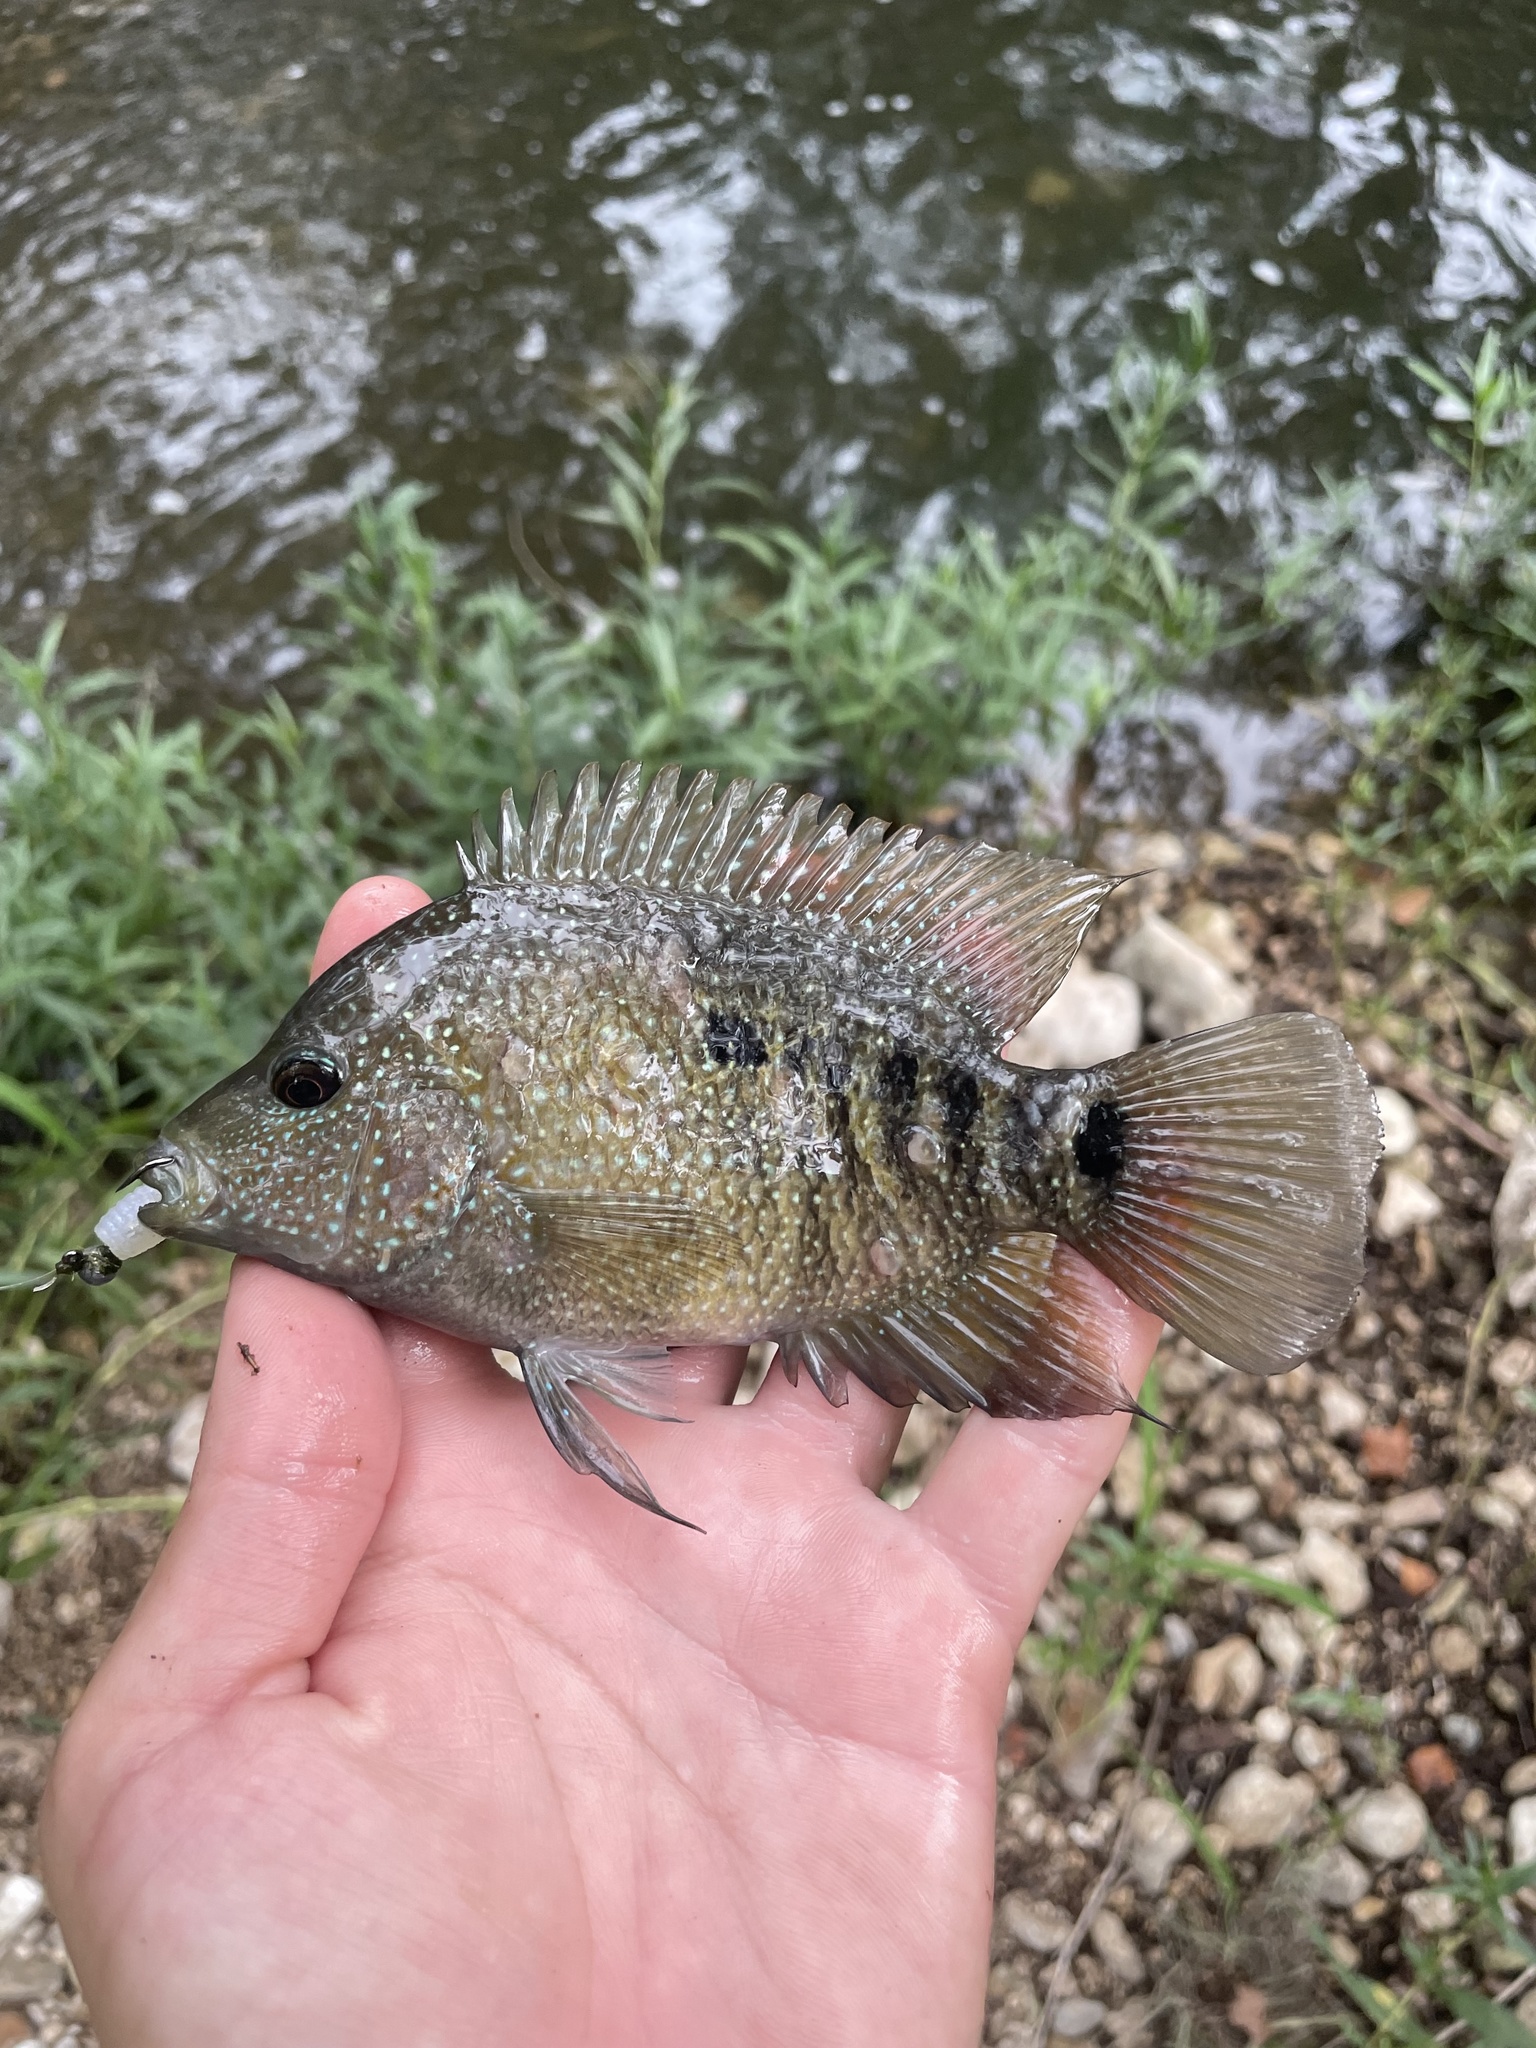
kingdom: Animalia
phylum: Chordata
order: Perciformes
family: Cichlidae
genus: Herichthys
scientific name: Herichthys cyanoguttatus
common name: Rio grande cichlid
